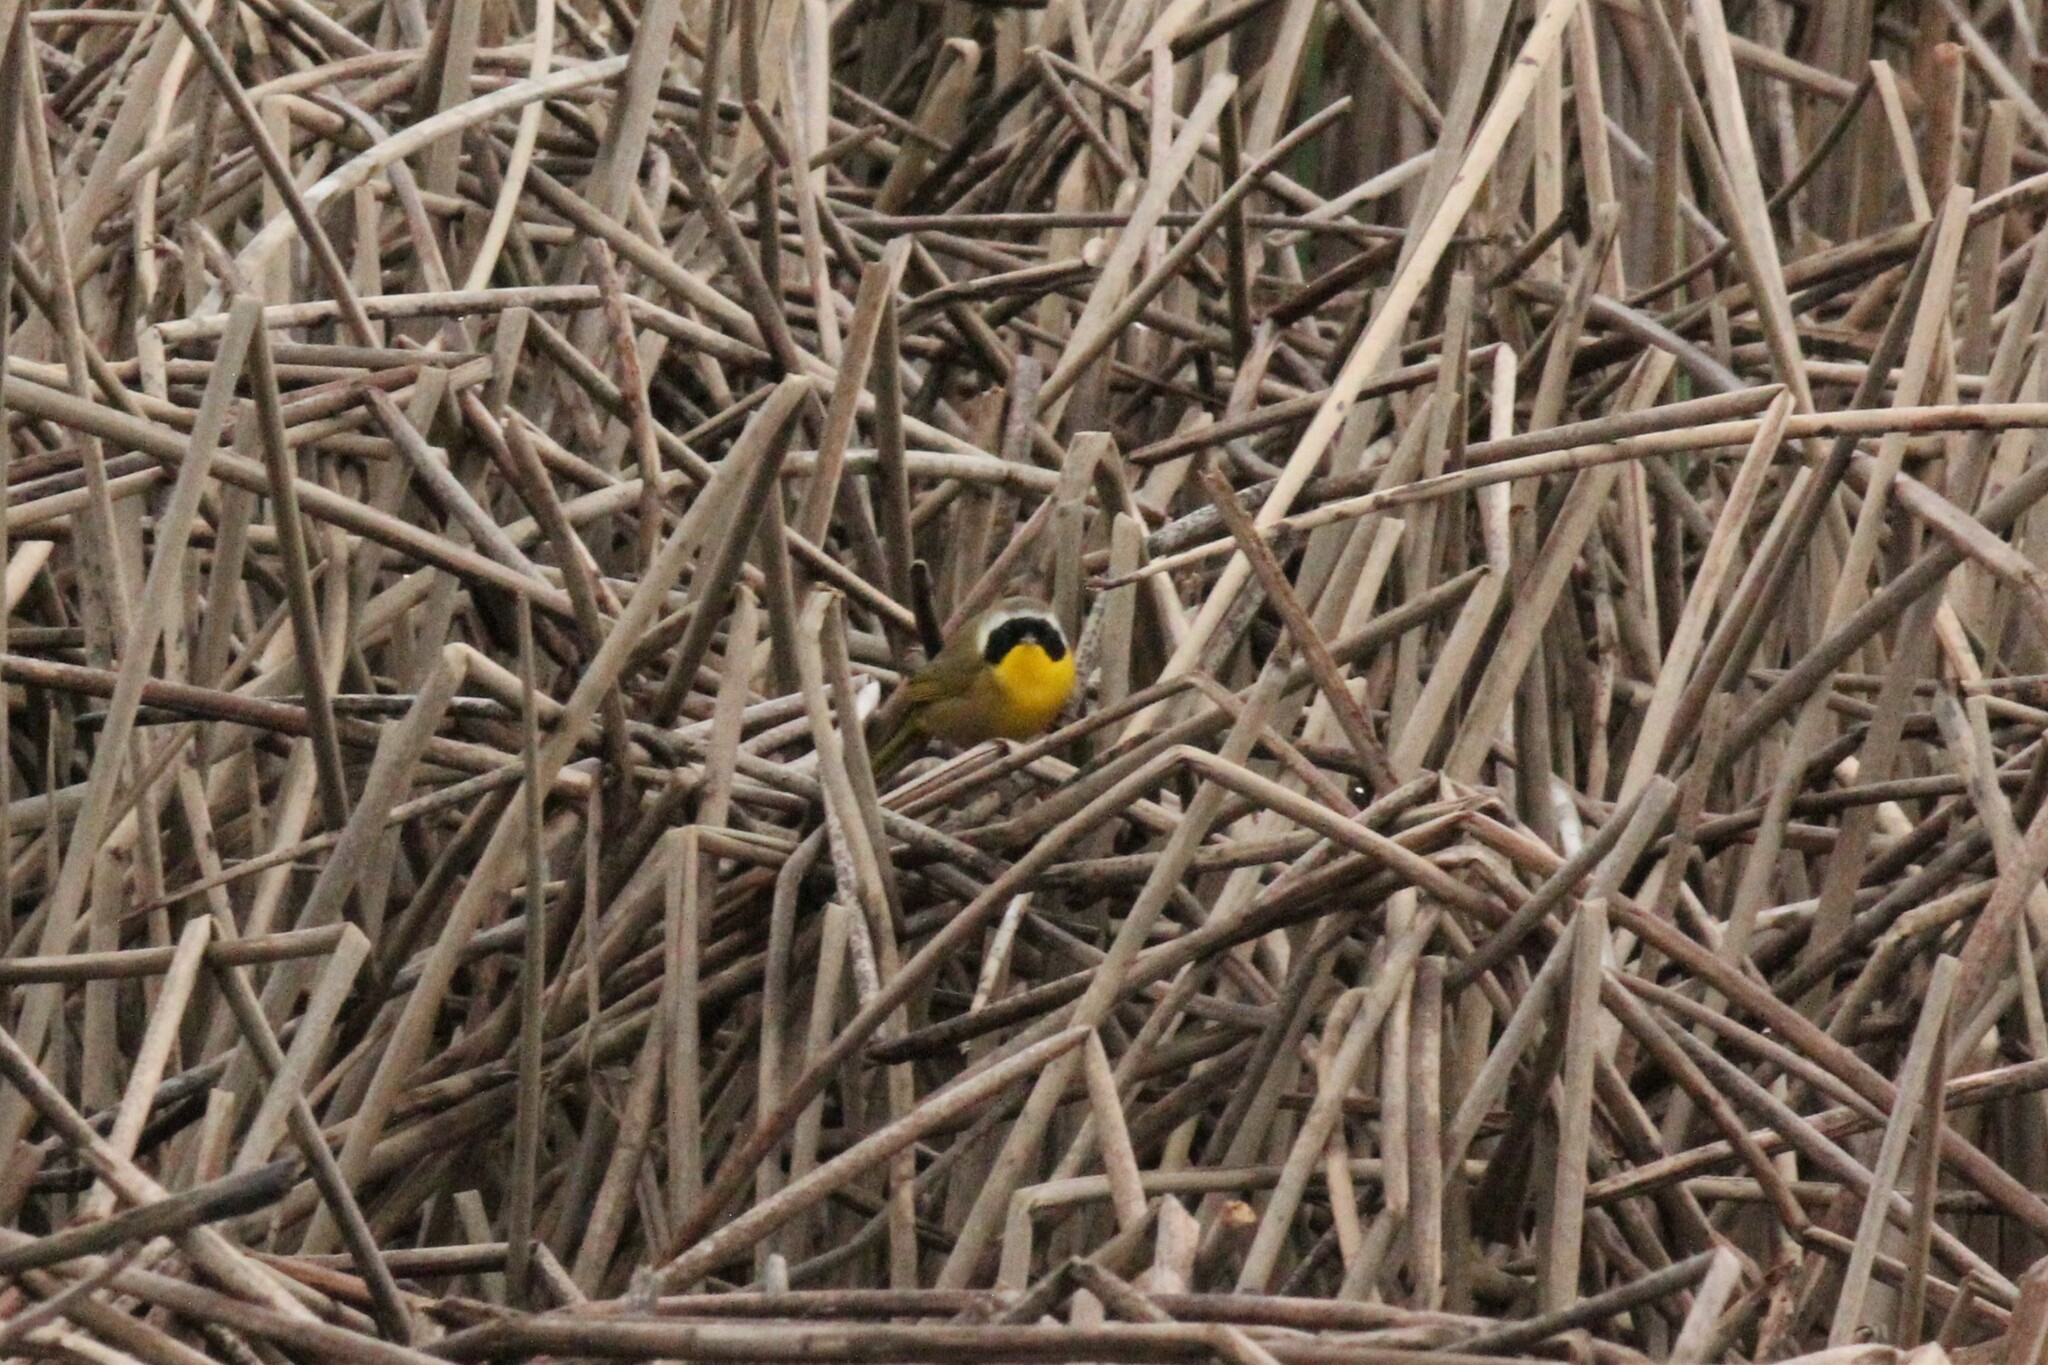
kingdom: Animalia
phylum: Chordata
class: Aves
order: Passeriformes
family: Parulidae
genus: Geothlypis
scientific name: Geothlypis trichas
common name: Common yellowthroat
